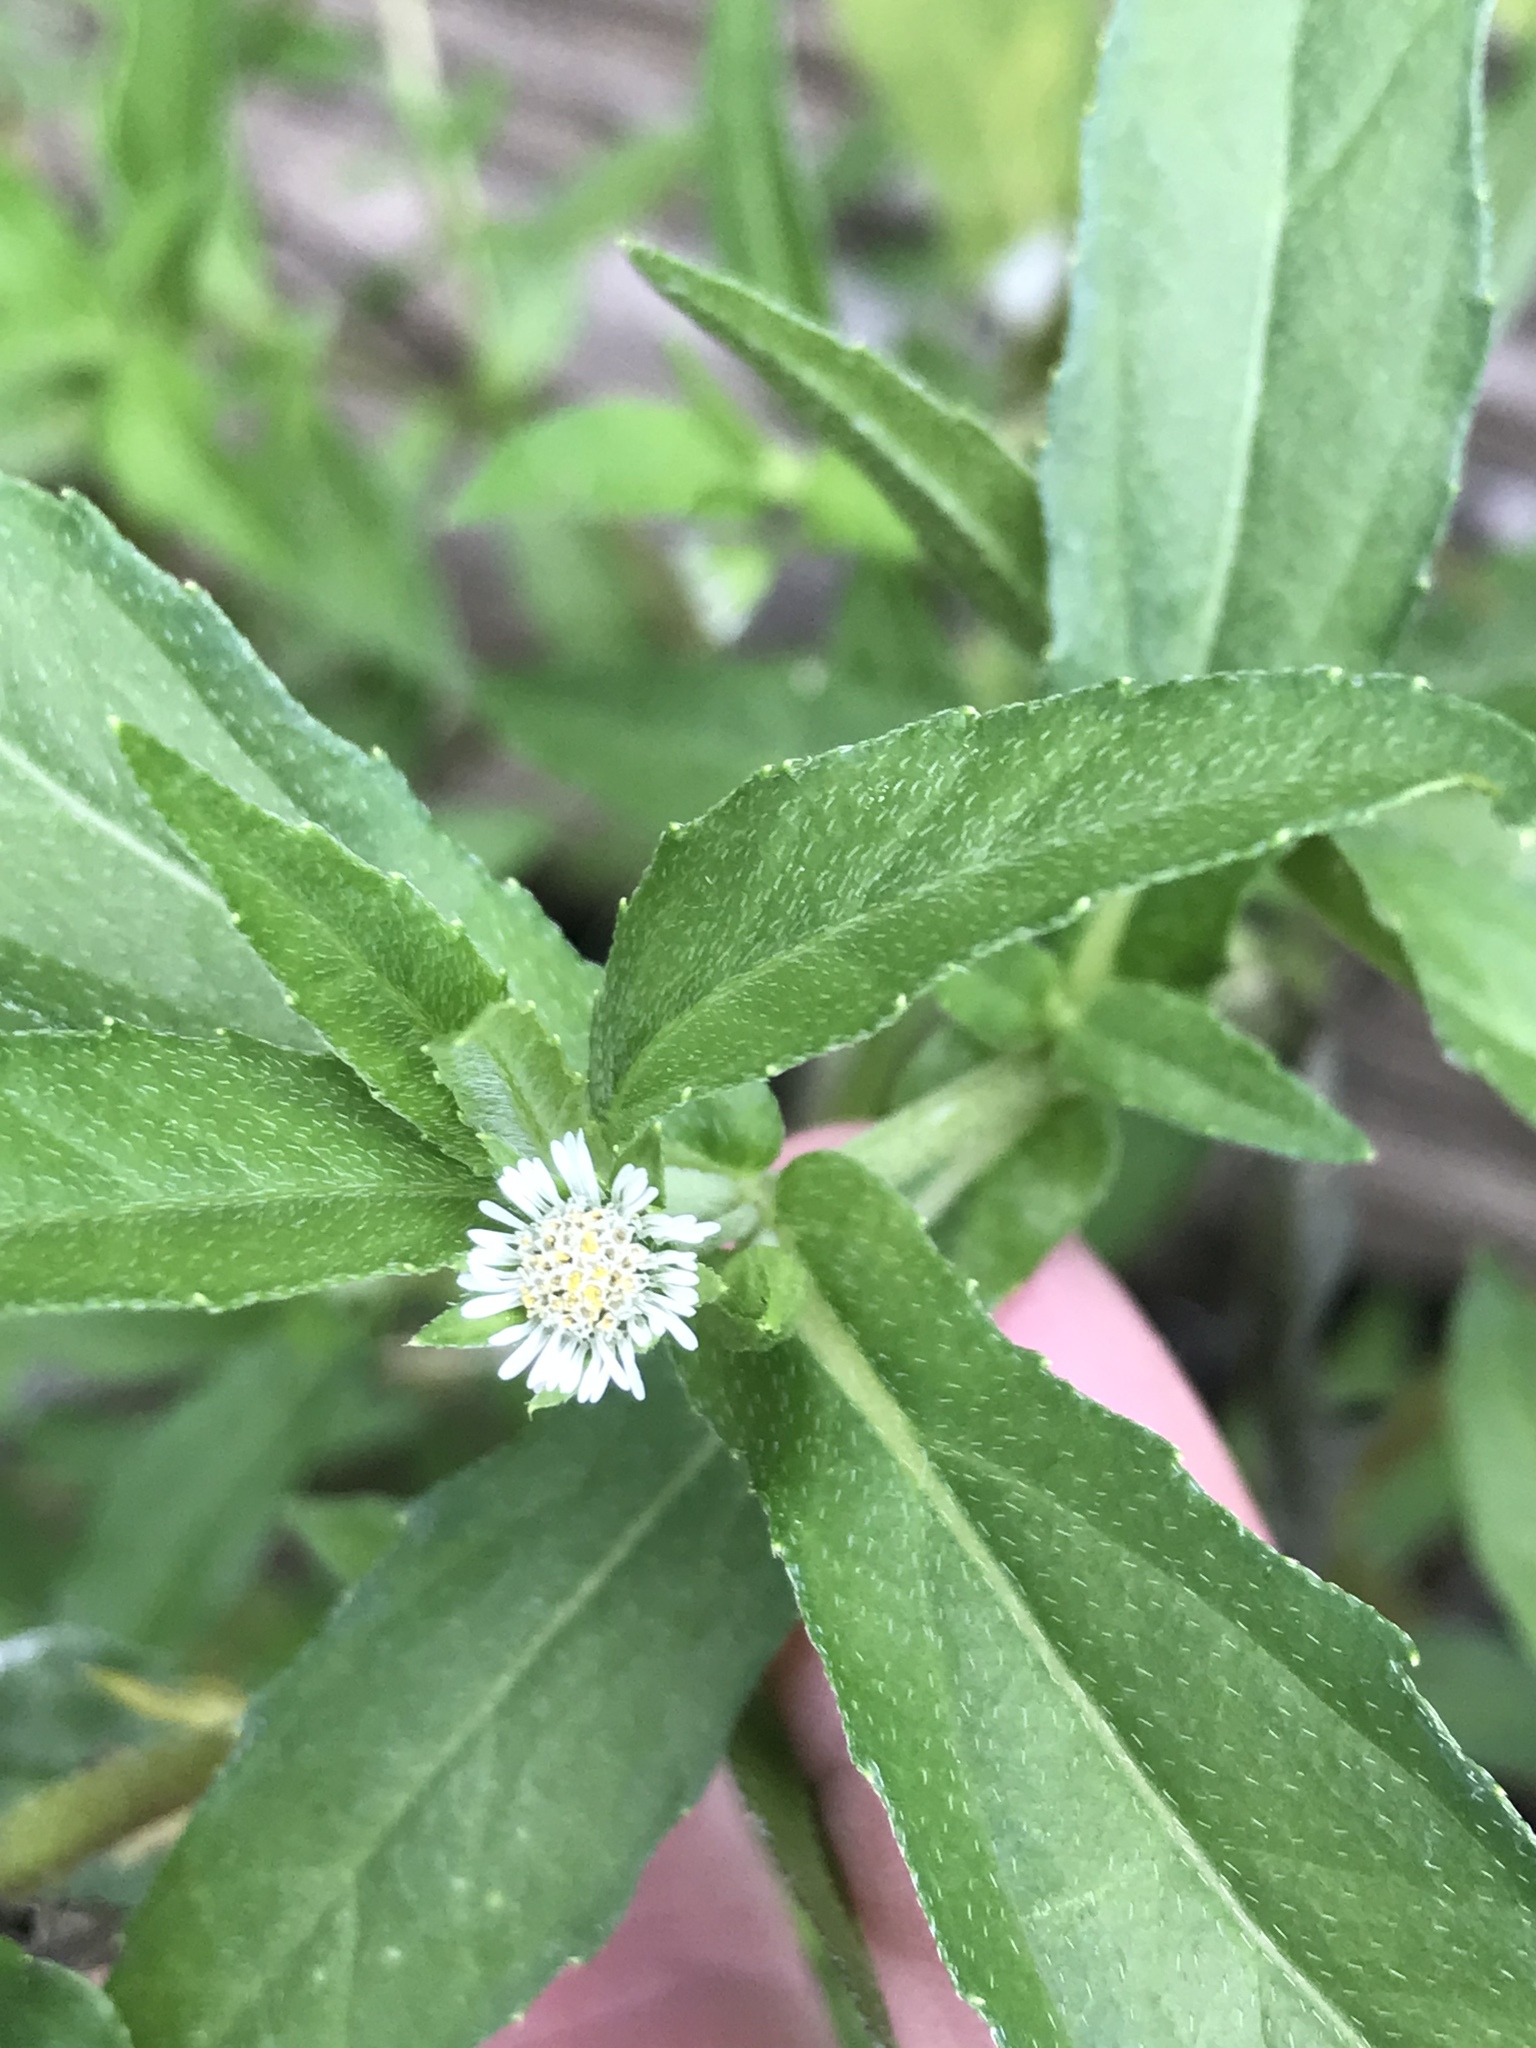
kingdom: Plantae
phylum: Tracheophyta
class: Magnoliopsida
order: Asterales
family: Asteraceae
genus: Eclipta
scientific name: Eclipta prostrata
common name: False daisy
